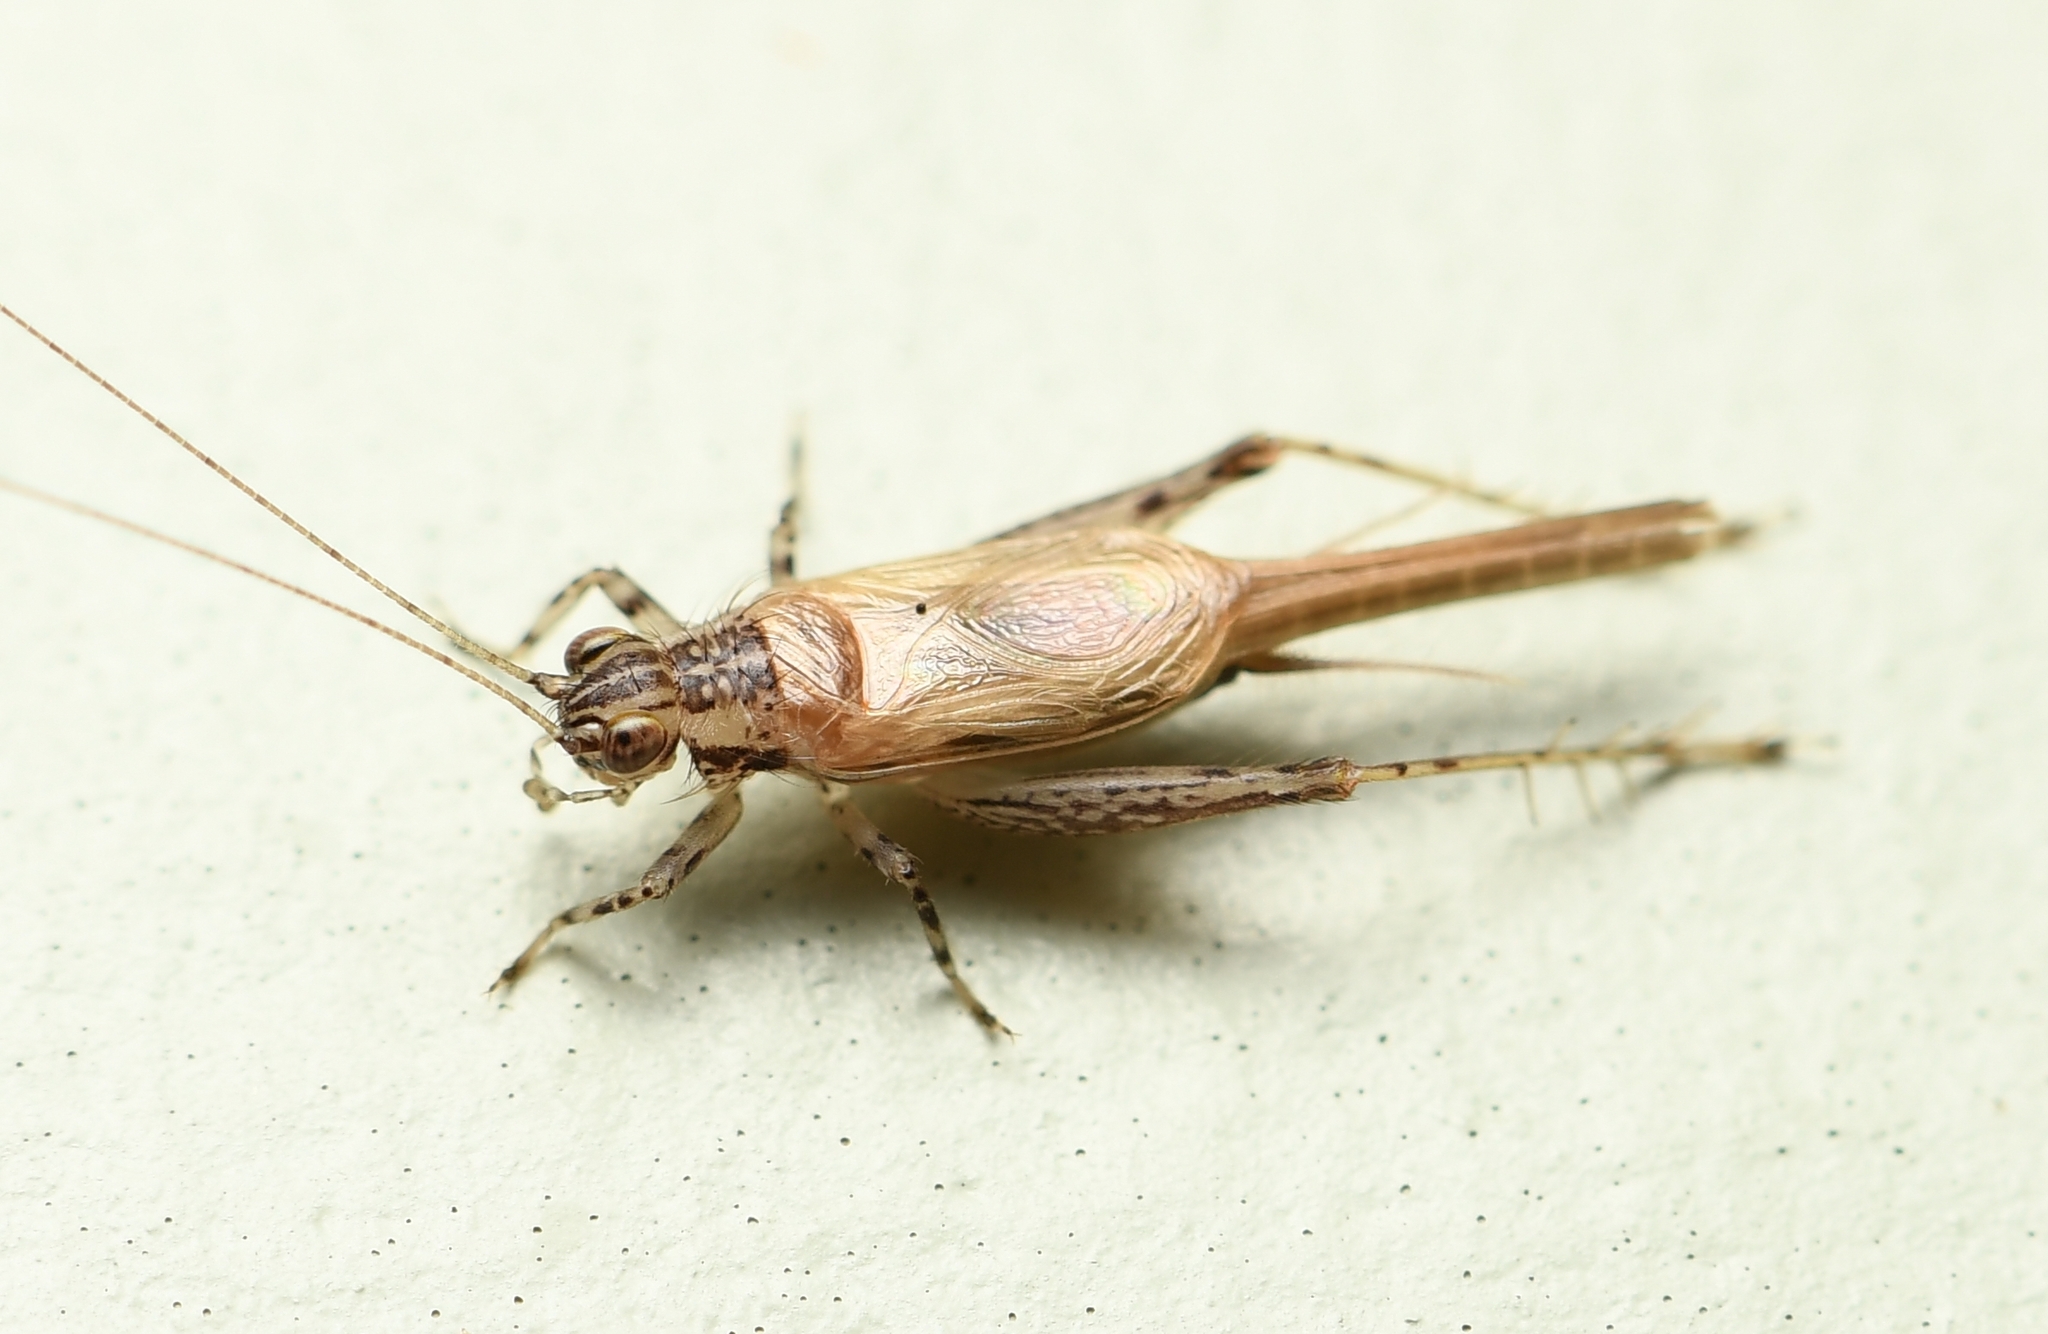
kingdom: Animalia
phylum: Arthropoda
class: Insecta
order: Orthoptera
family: Trigonidiidae
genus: Anaxipha
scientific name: Anaxipha fultoni
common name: Fulton's trig
